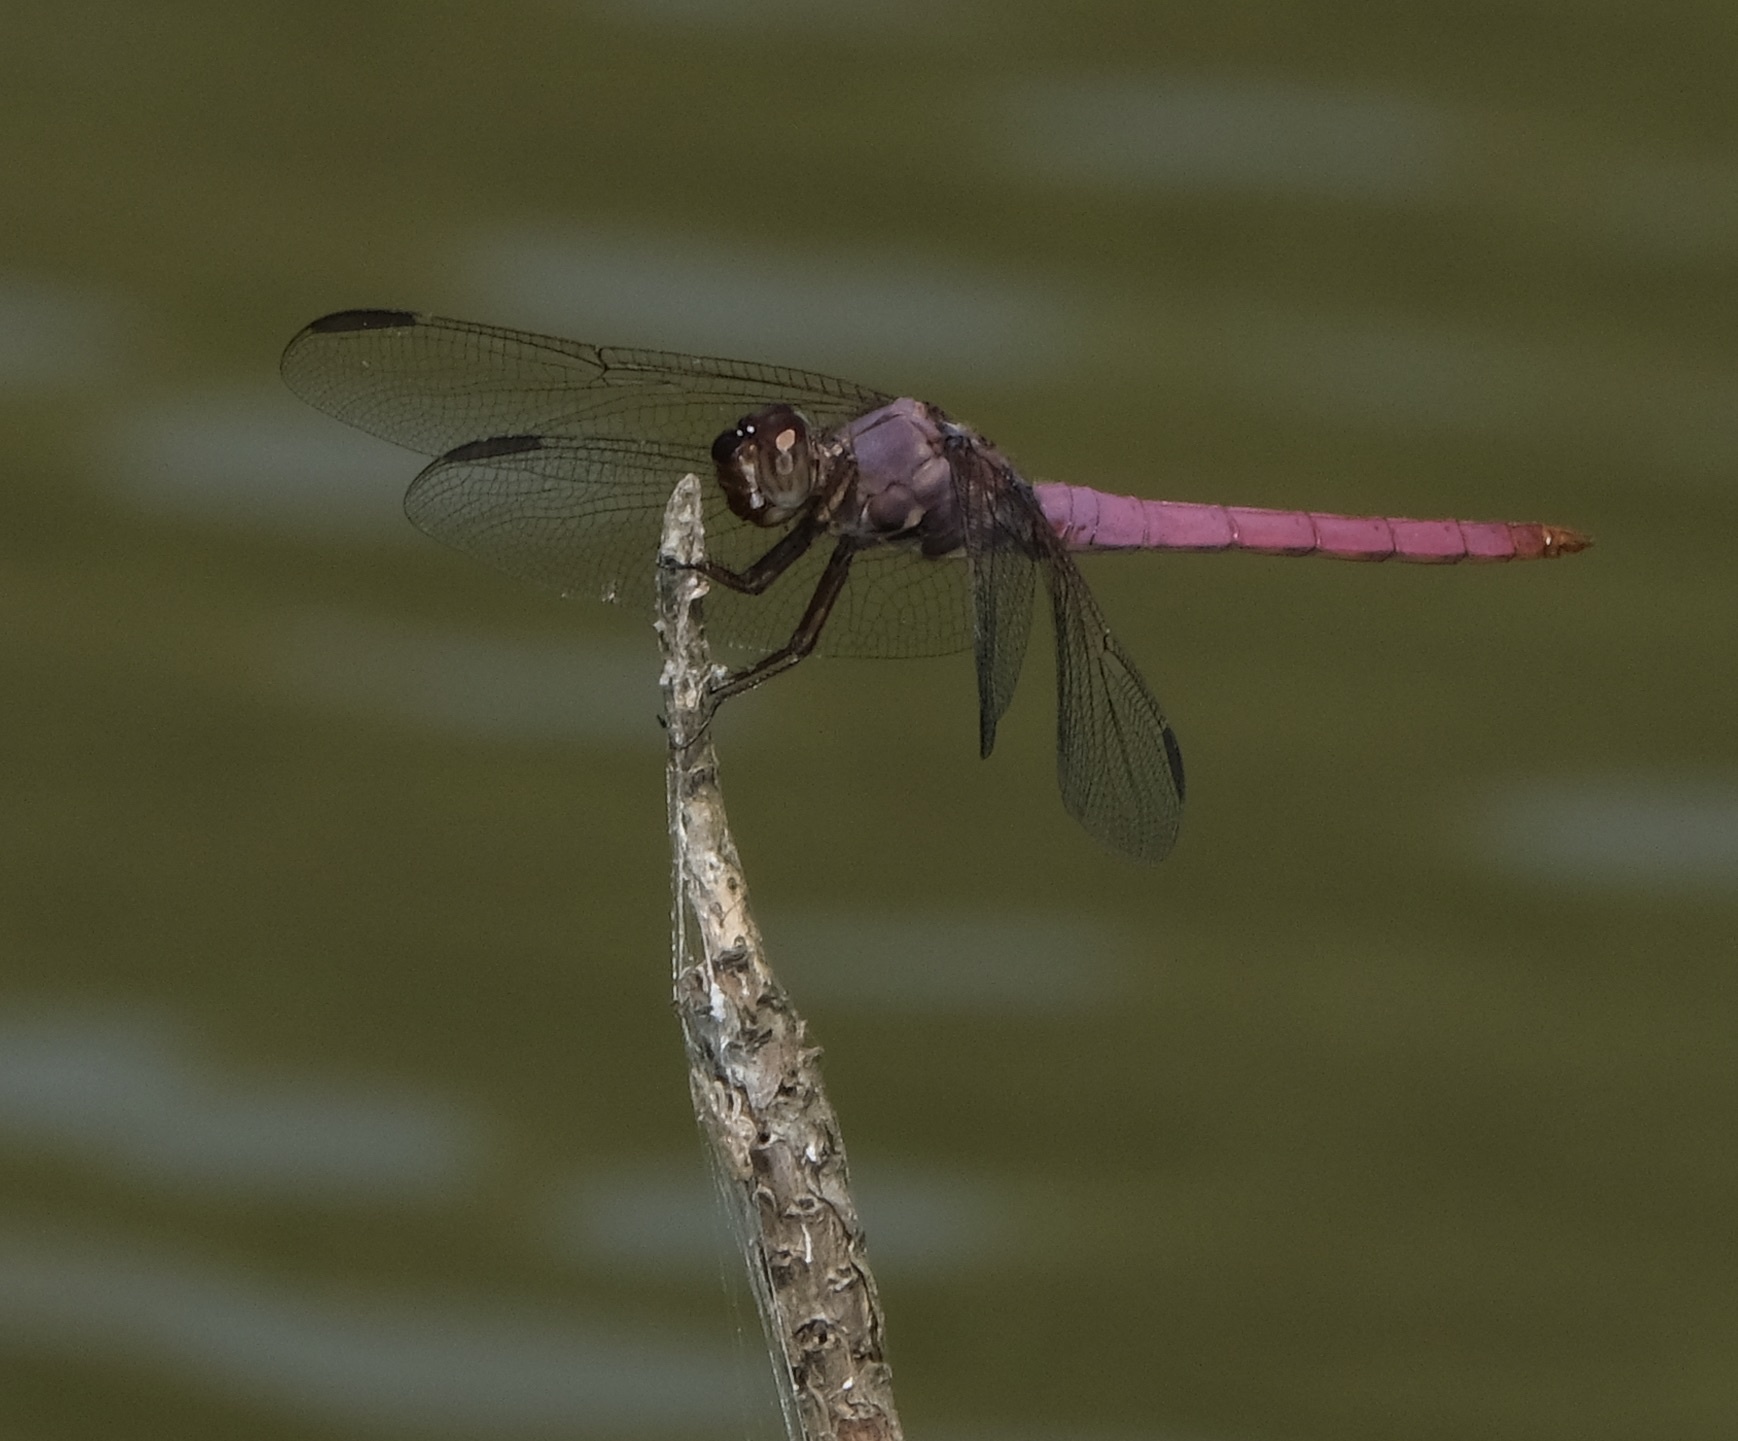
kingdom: Animalia
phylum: Arthropoda
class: Insecta
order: Odonata
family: Libellulidae
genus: Orthemis
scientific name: Orthemis ferruginea
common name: Roseate skimmer
